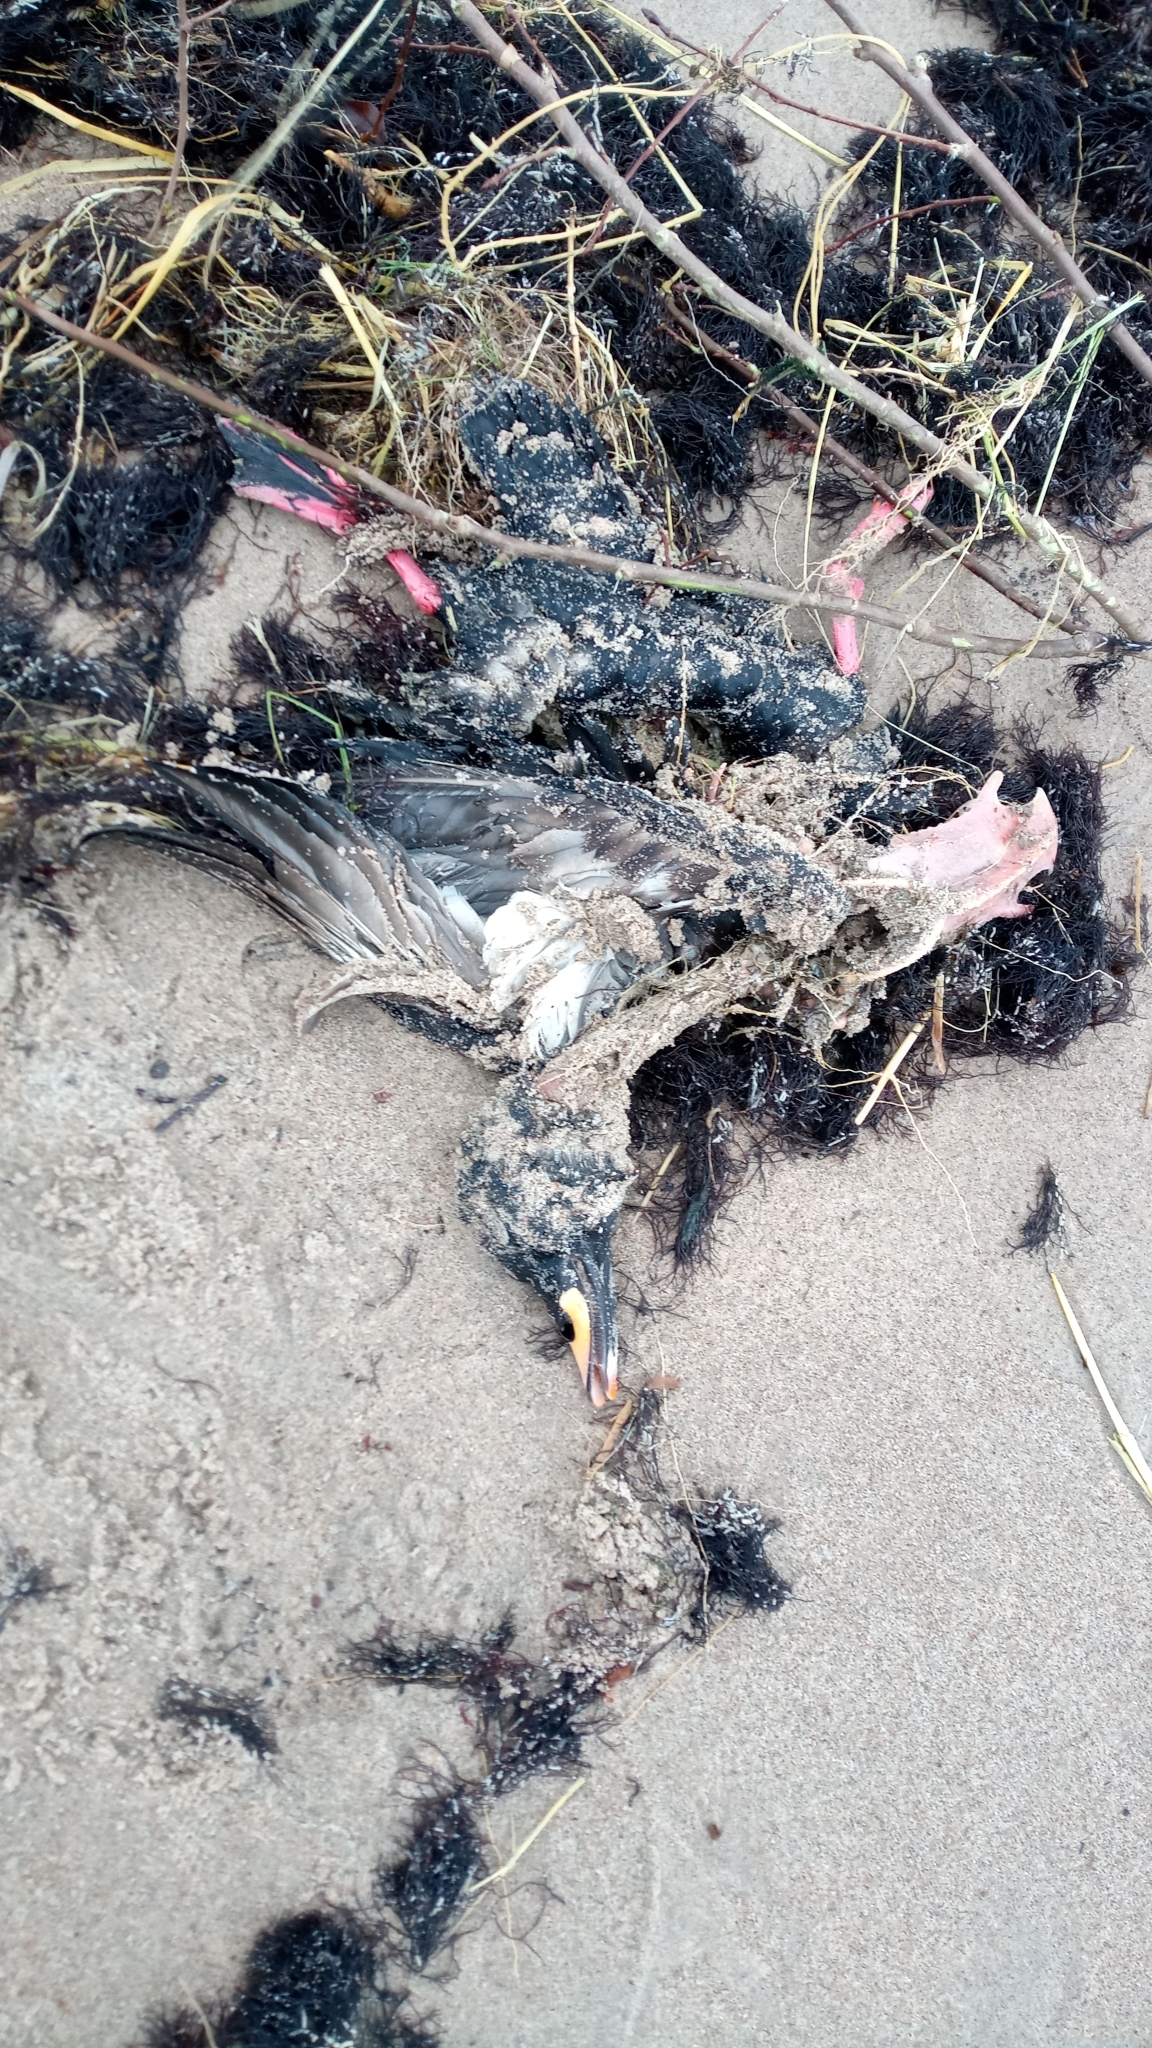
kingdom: Animalia
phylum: Chordata
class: Aves
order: Anseriformes
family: Anatidae
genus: Melanitta
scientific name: Melanitta fusca
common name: Velvet scoter
